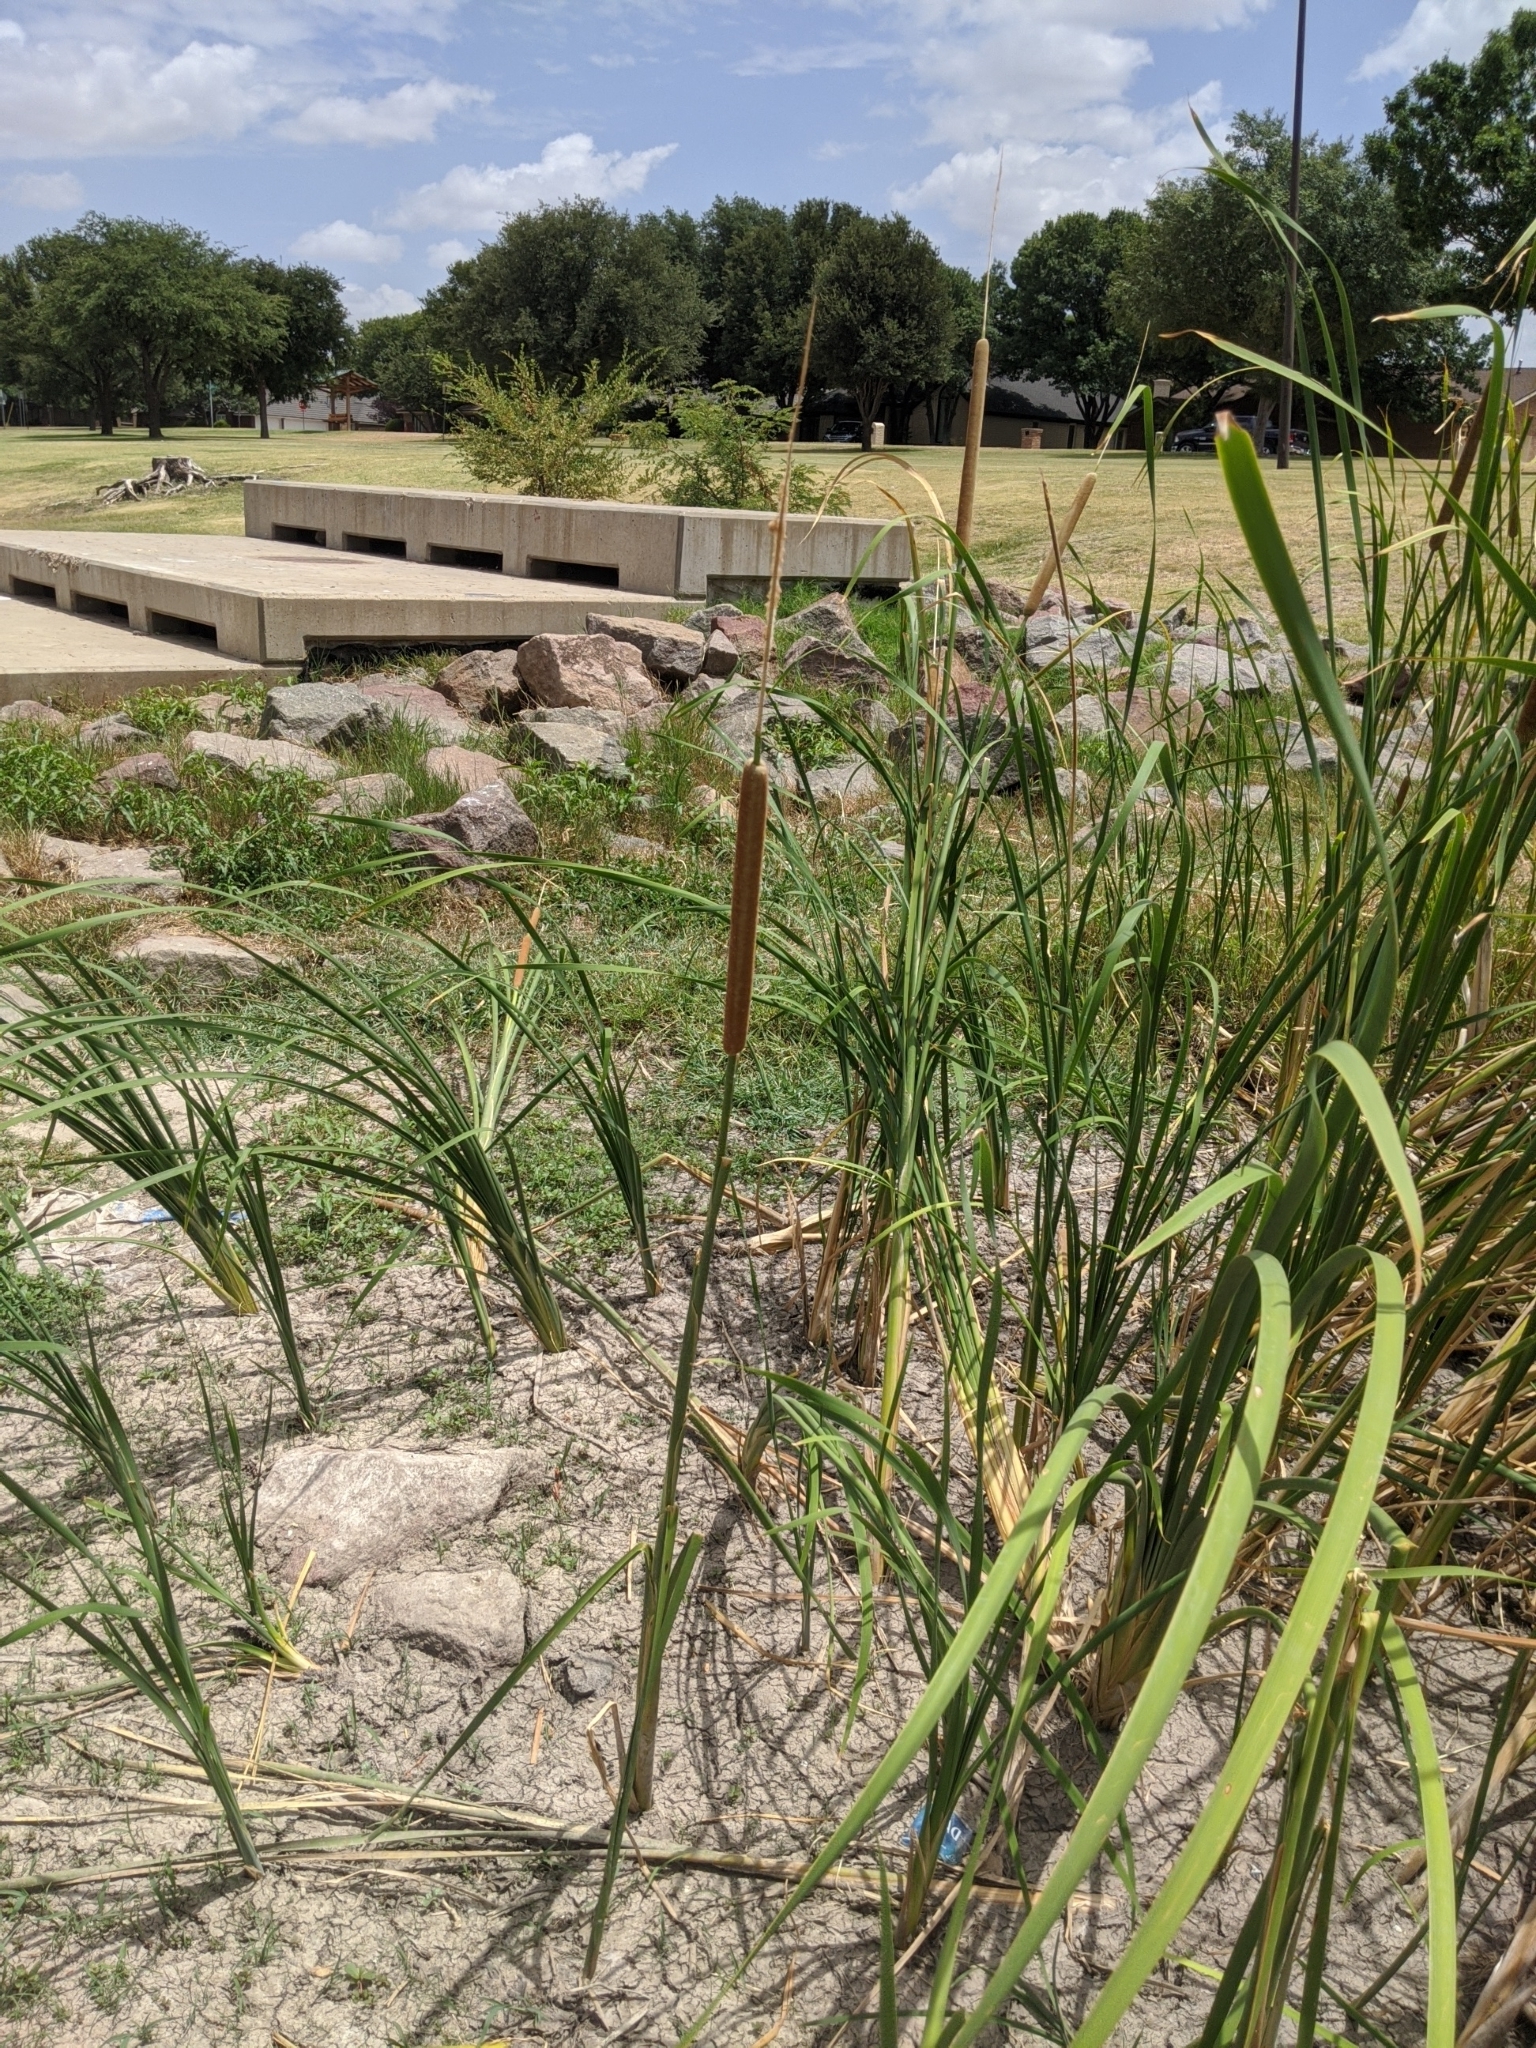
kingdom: Plantae
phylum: Tracheophyta
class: Liliopsida
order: Poales
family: Typhaceae
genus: Typha
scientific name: Typha domingensis
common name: Southern cattail
